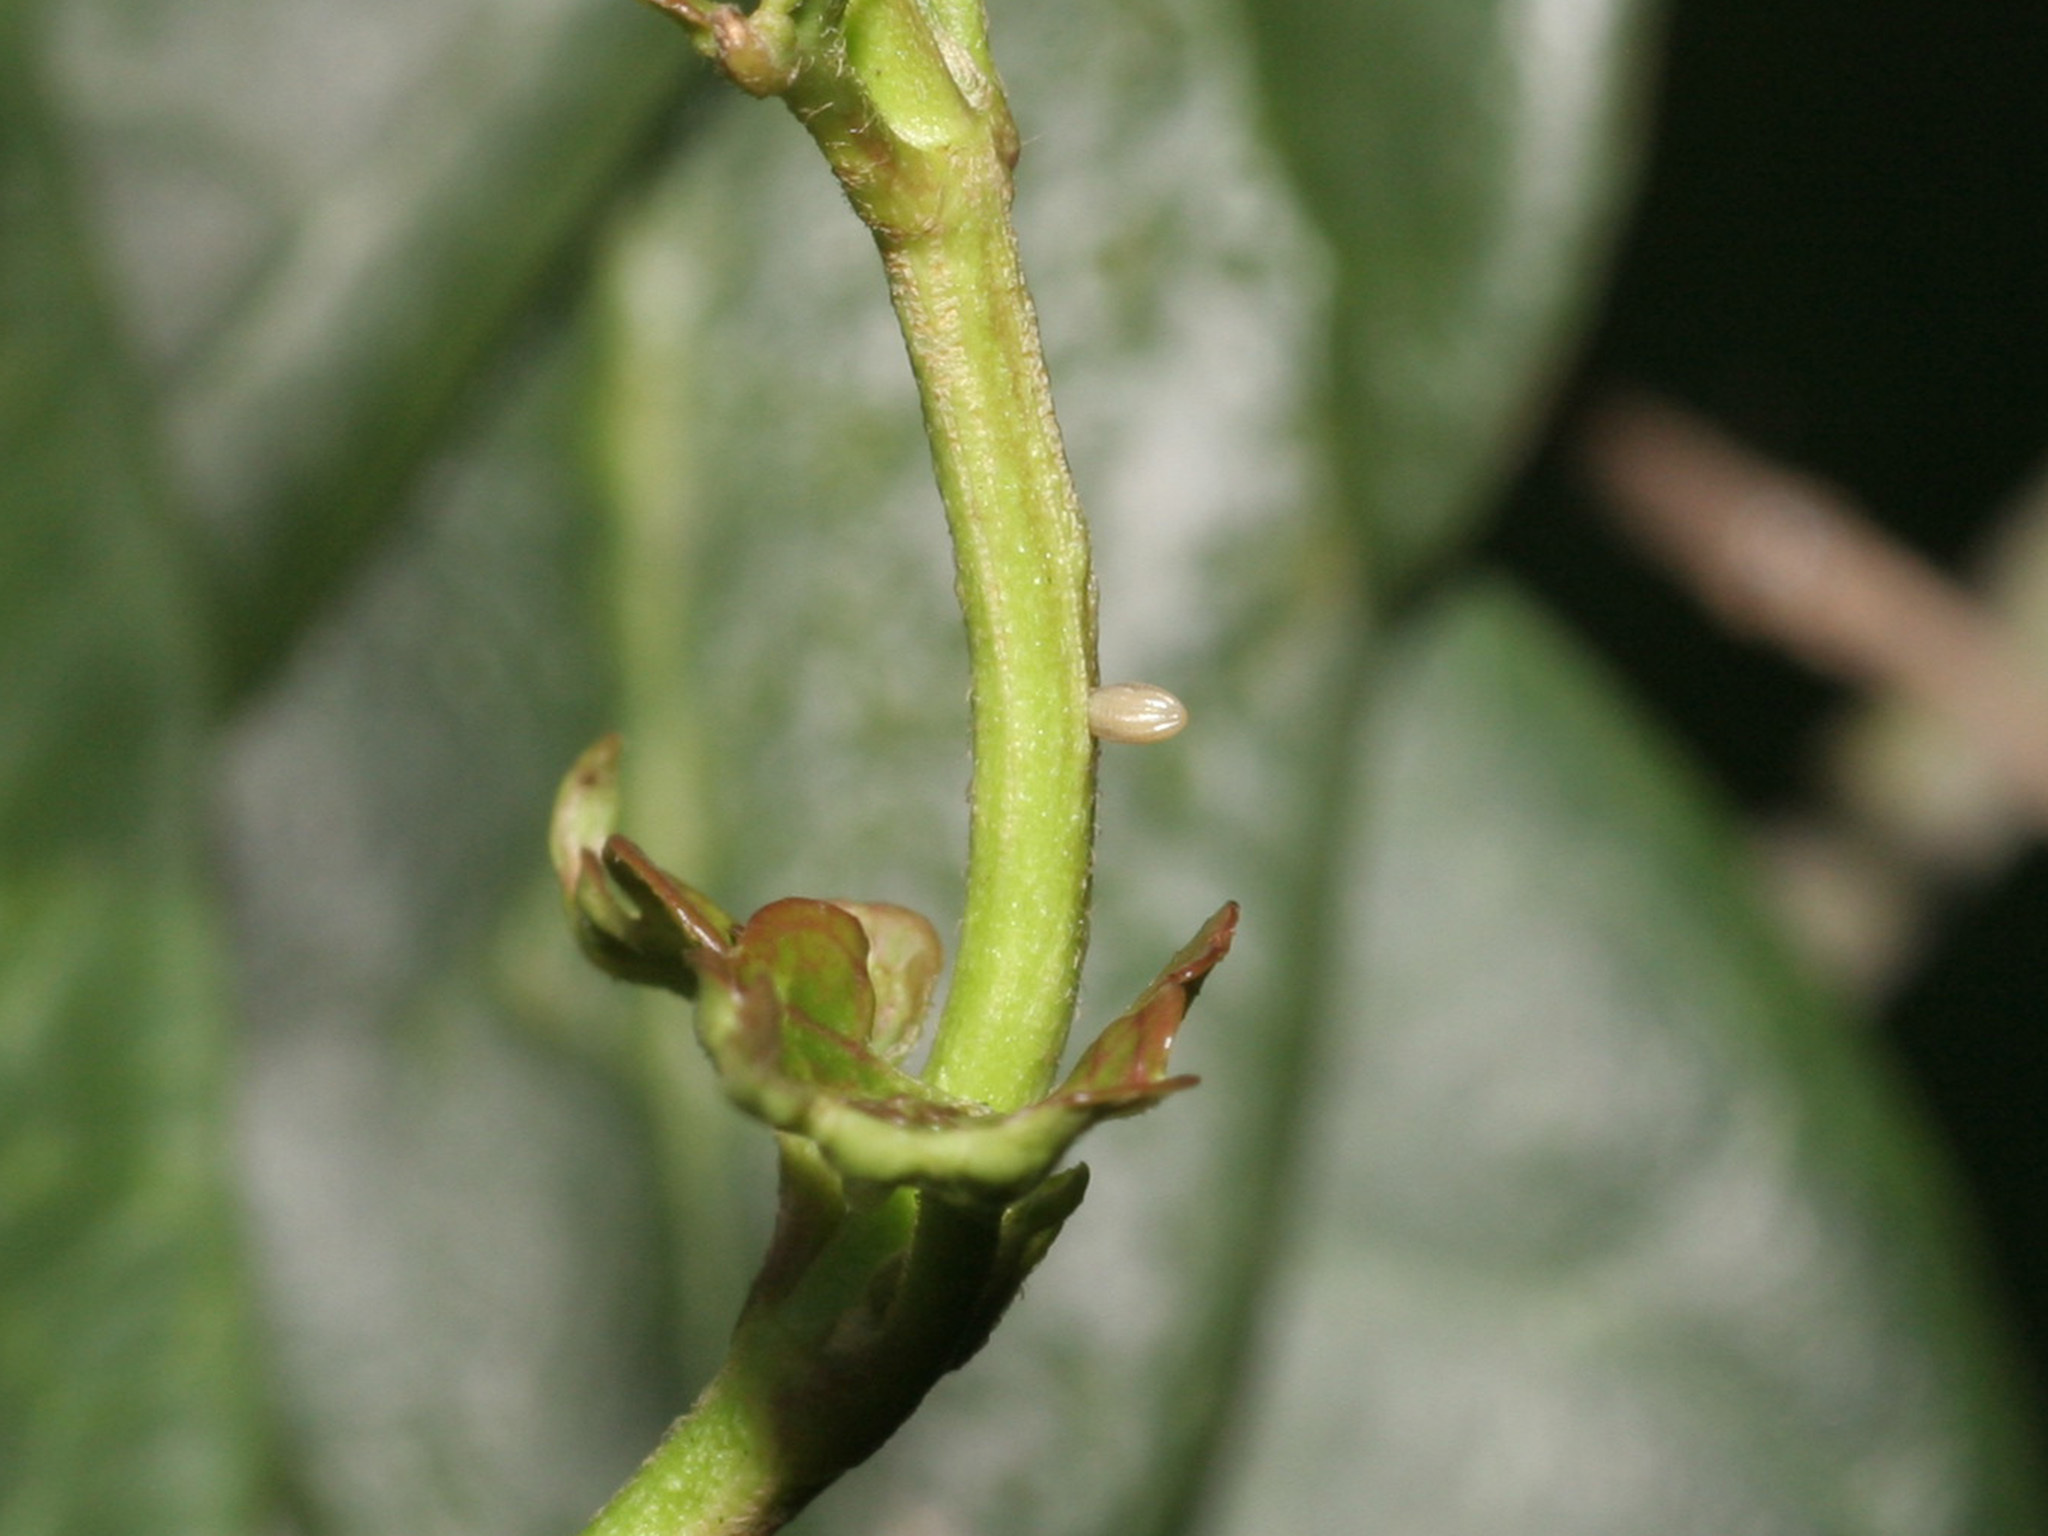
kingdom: Animalia
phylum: Arthropoda
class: Insecta
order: Lepidoptera
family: Nymphalidae
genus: Ideopsis
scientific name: Ideopsis vulgaris
